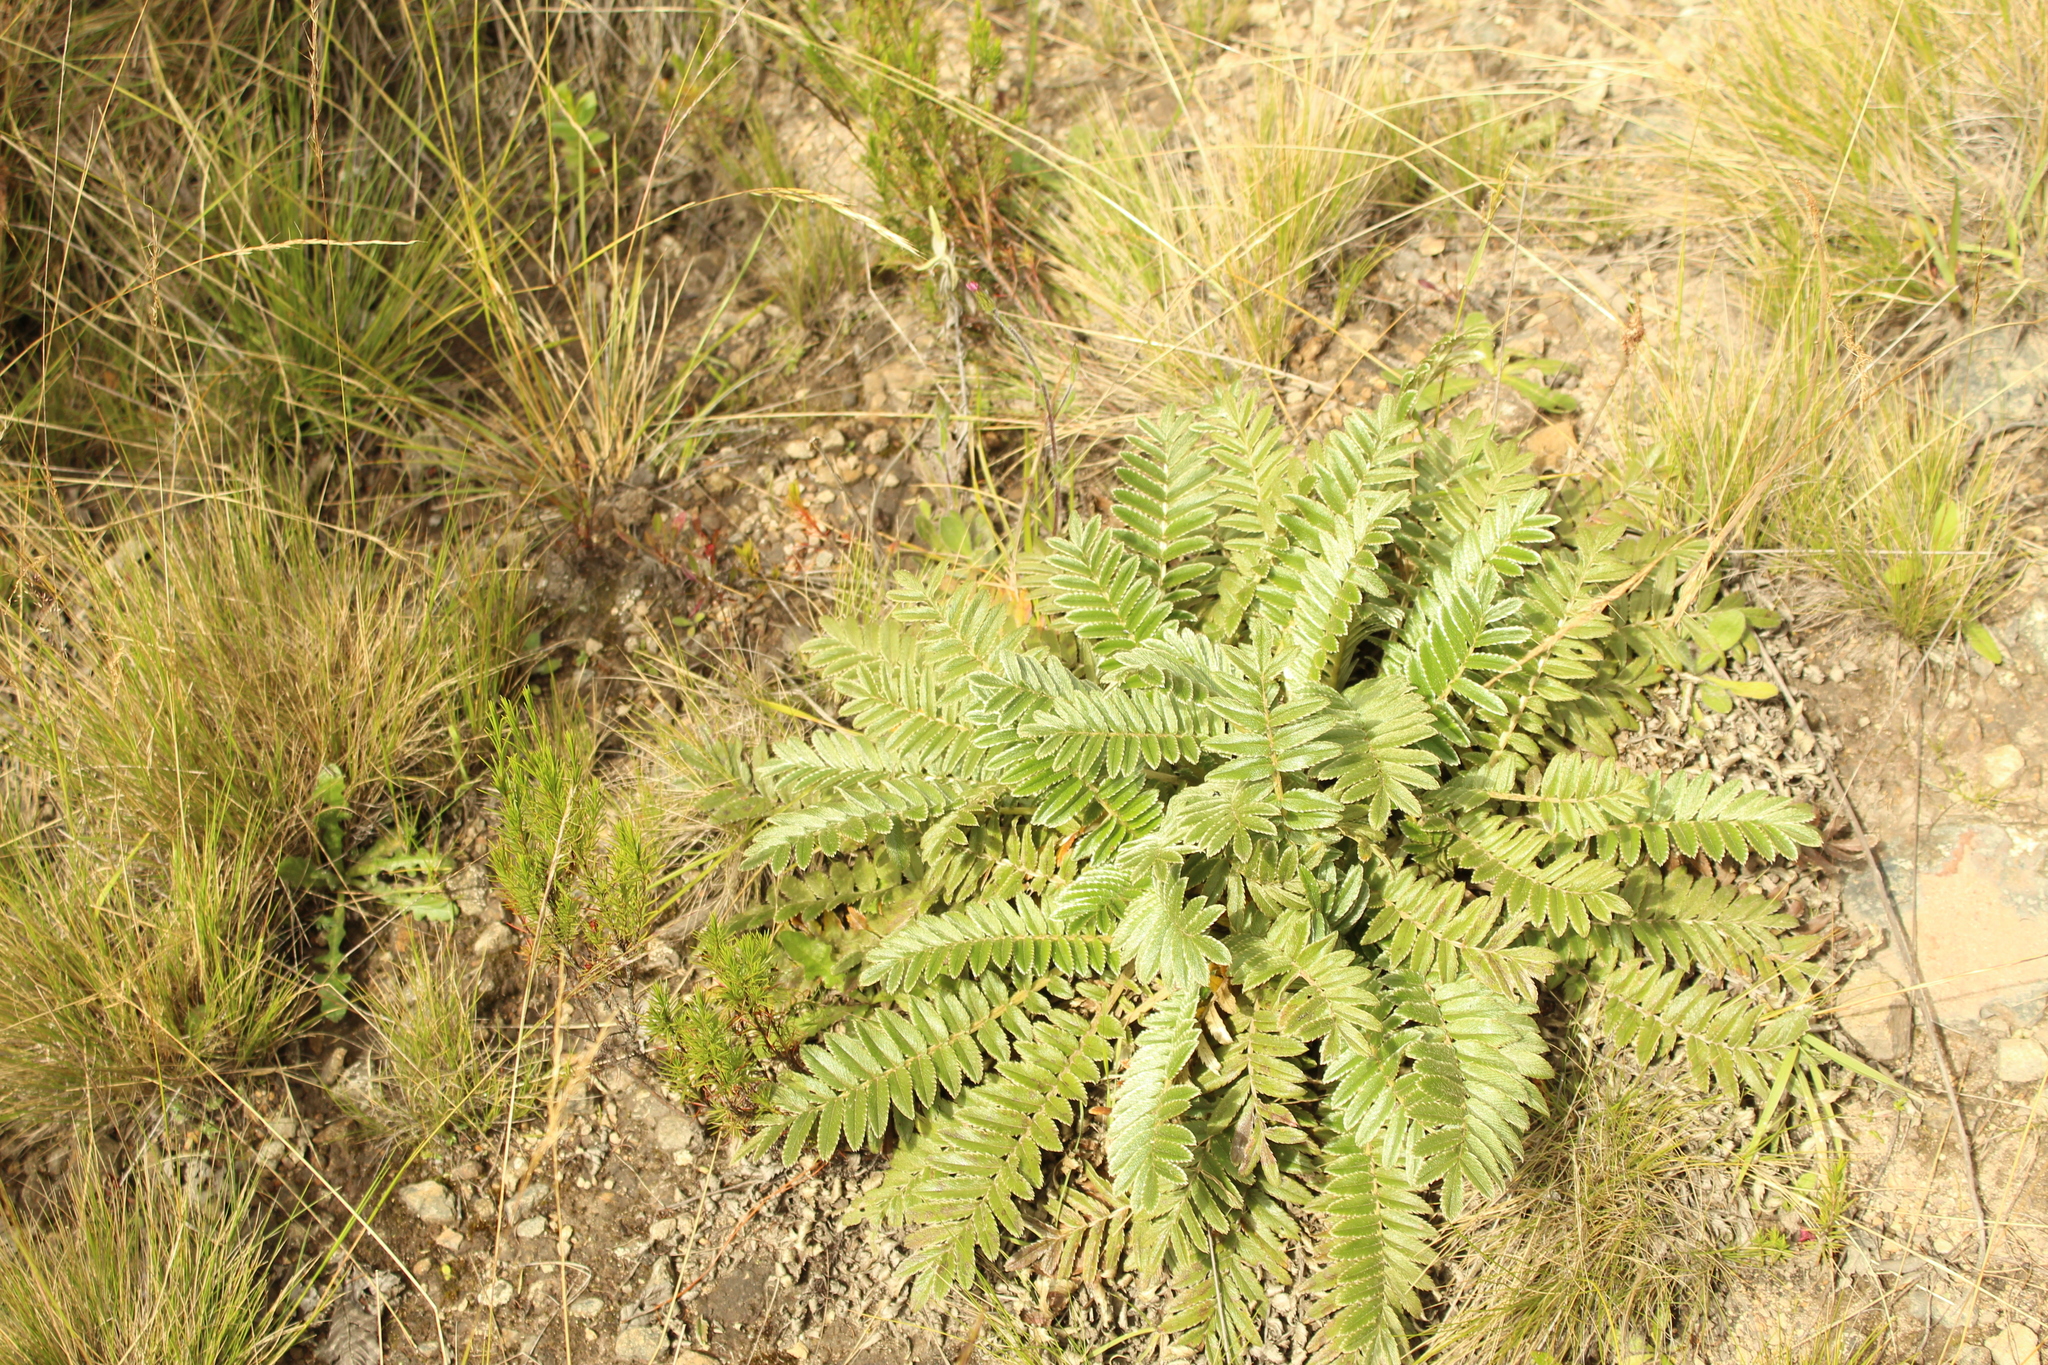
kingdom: Plantae
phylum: Tracheophyta
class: Magnoliopsida
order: Rosales
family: Rosaceae
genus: Acaena
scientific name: Acaena cylindristachya
